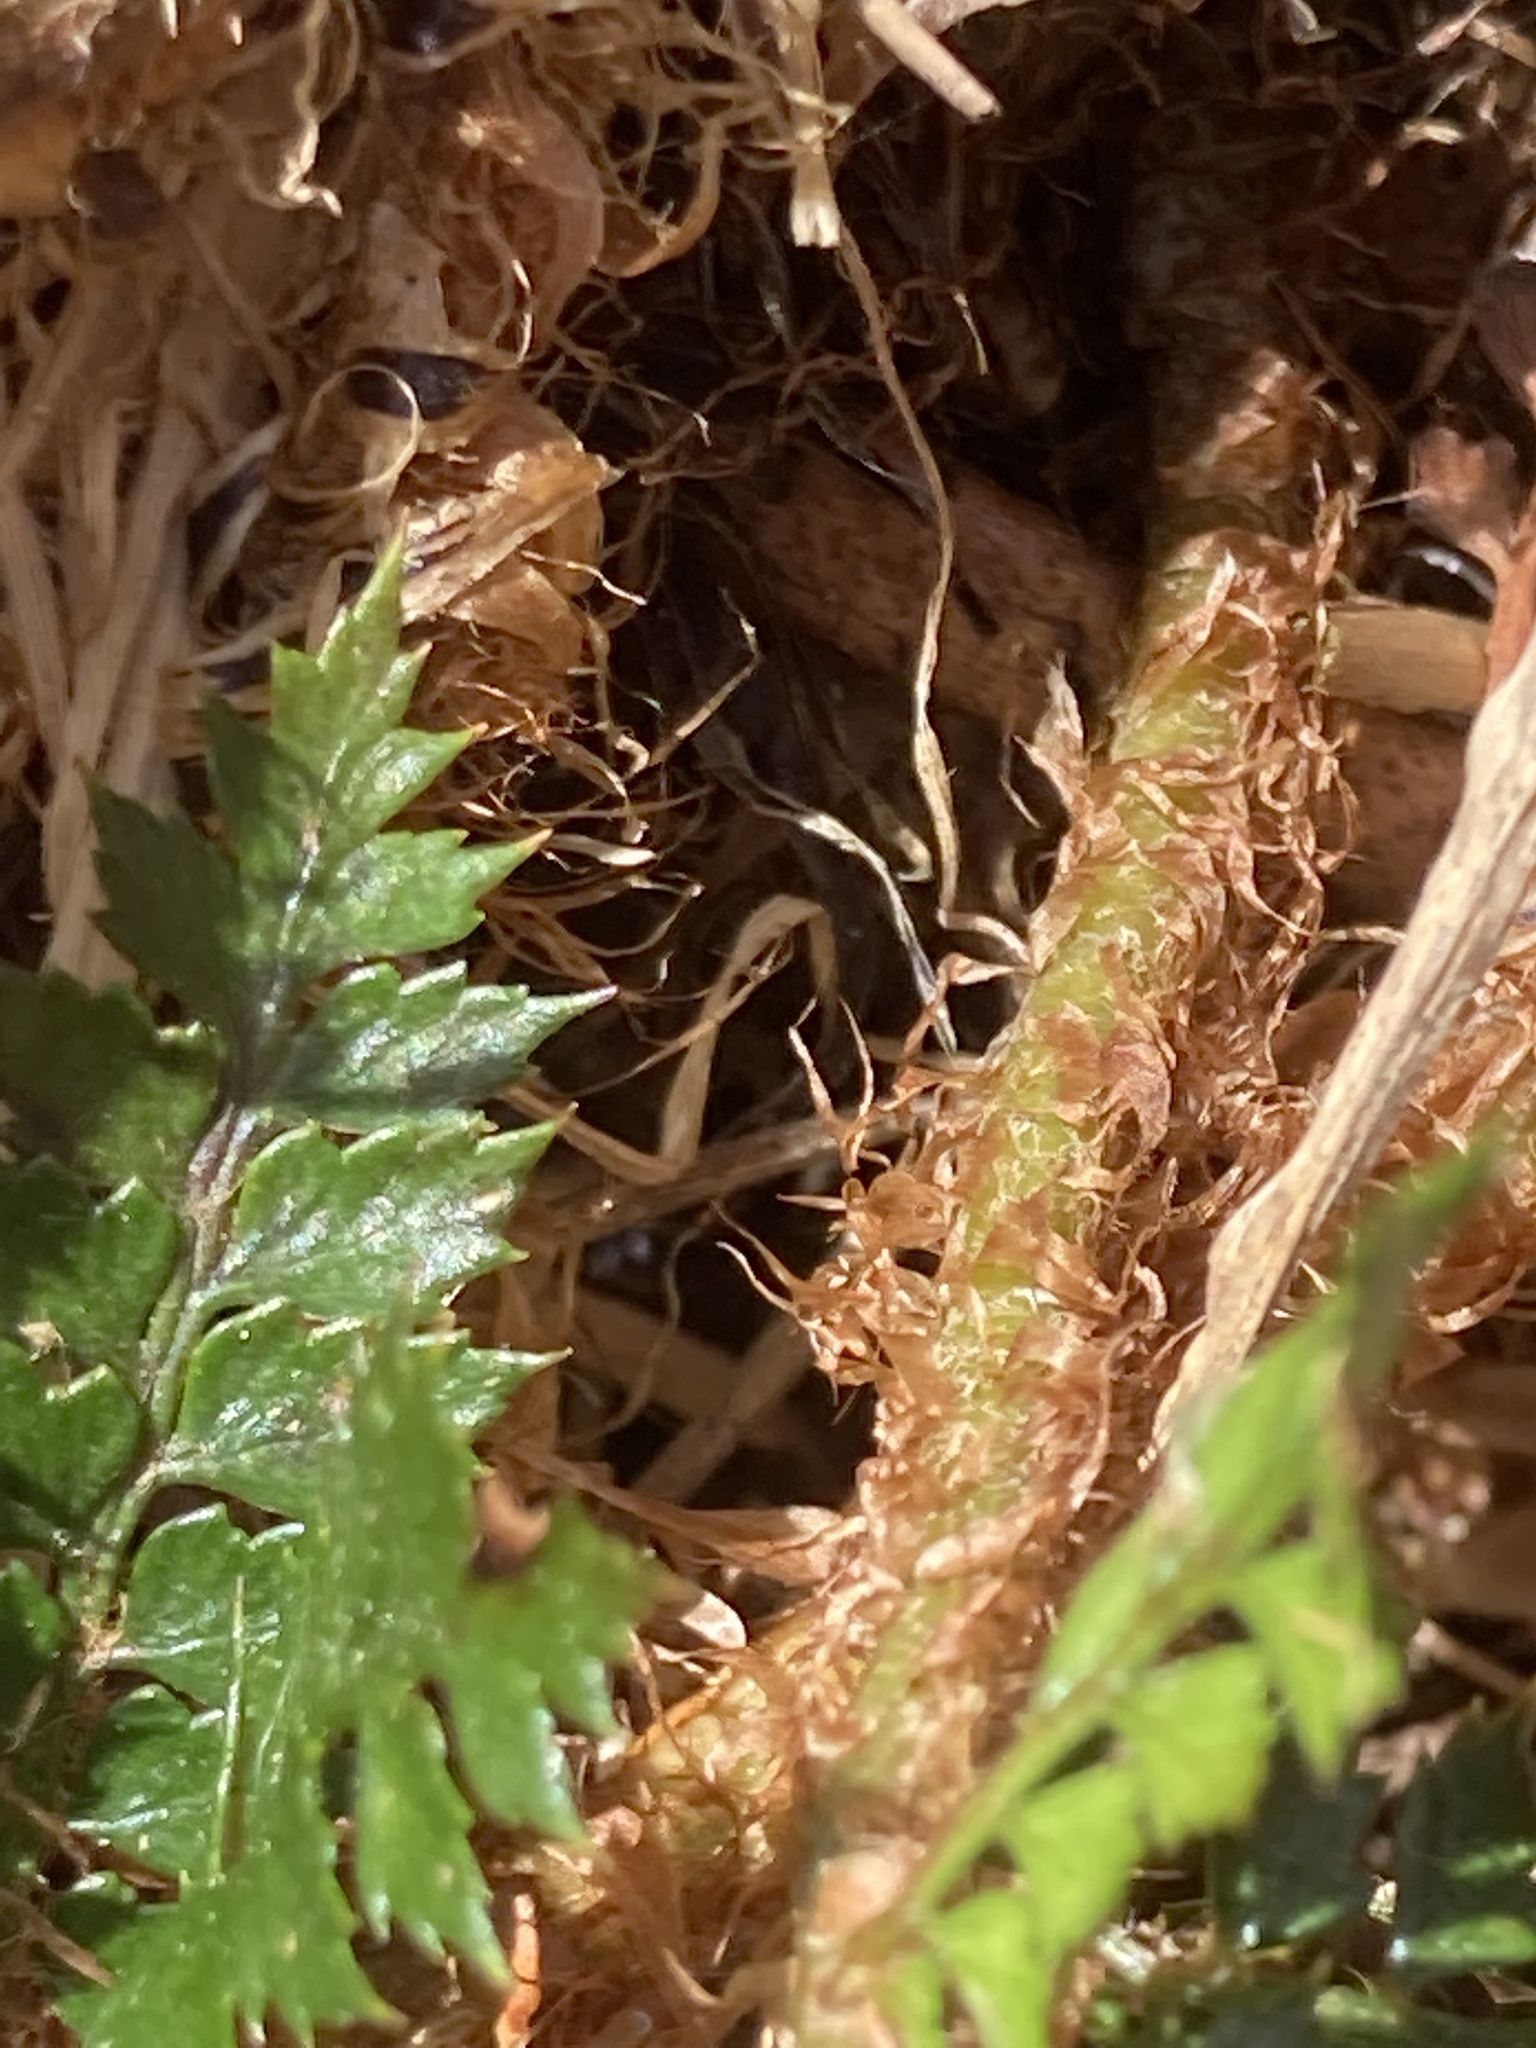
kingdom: Plantae
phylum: Tracheophyta
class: Polypodiopsida
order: Polypodiales
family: Dryopteridaceae
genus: Polystichum
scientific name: Polystichum vestitum
